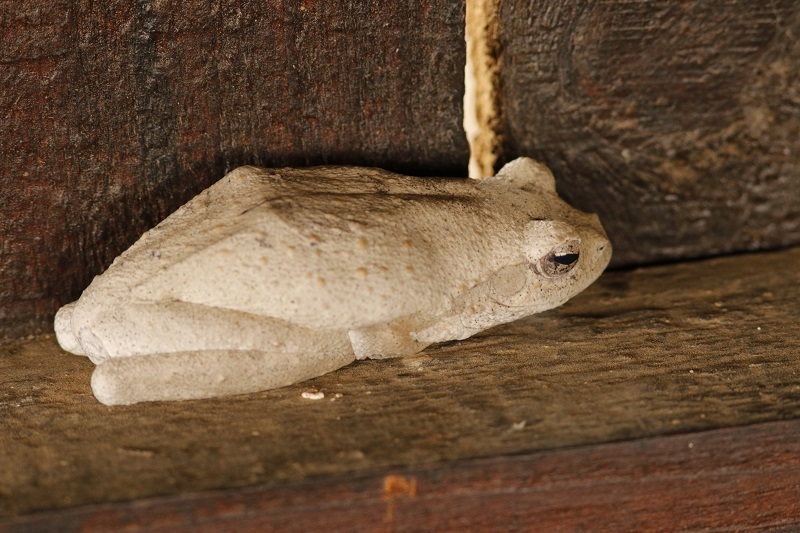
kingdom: Animalia
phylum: Chordata
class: Amphibia
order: Anura
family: Rhacophoridae
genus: Chiromantis
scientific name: Chiromantis xerampelina
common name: African gray treefrog
